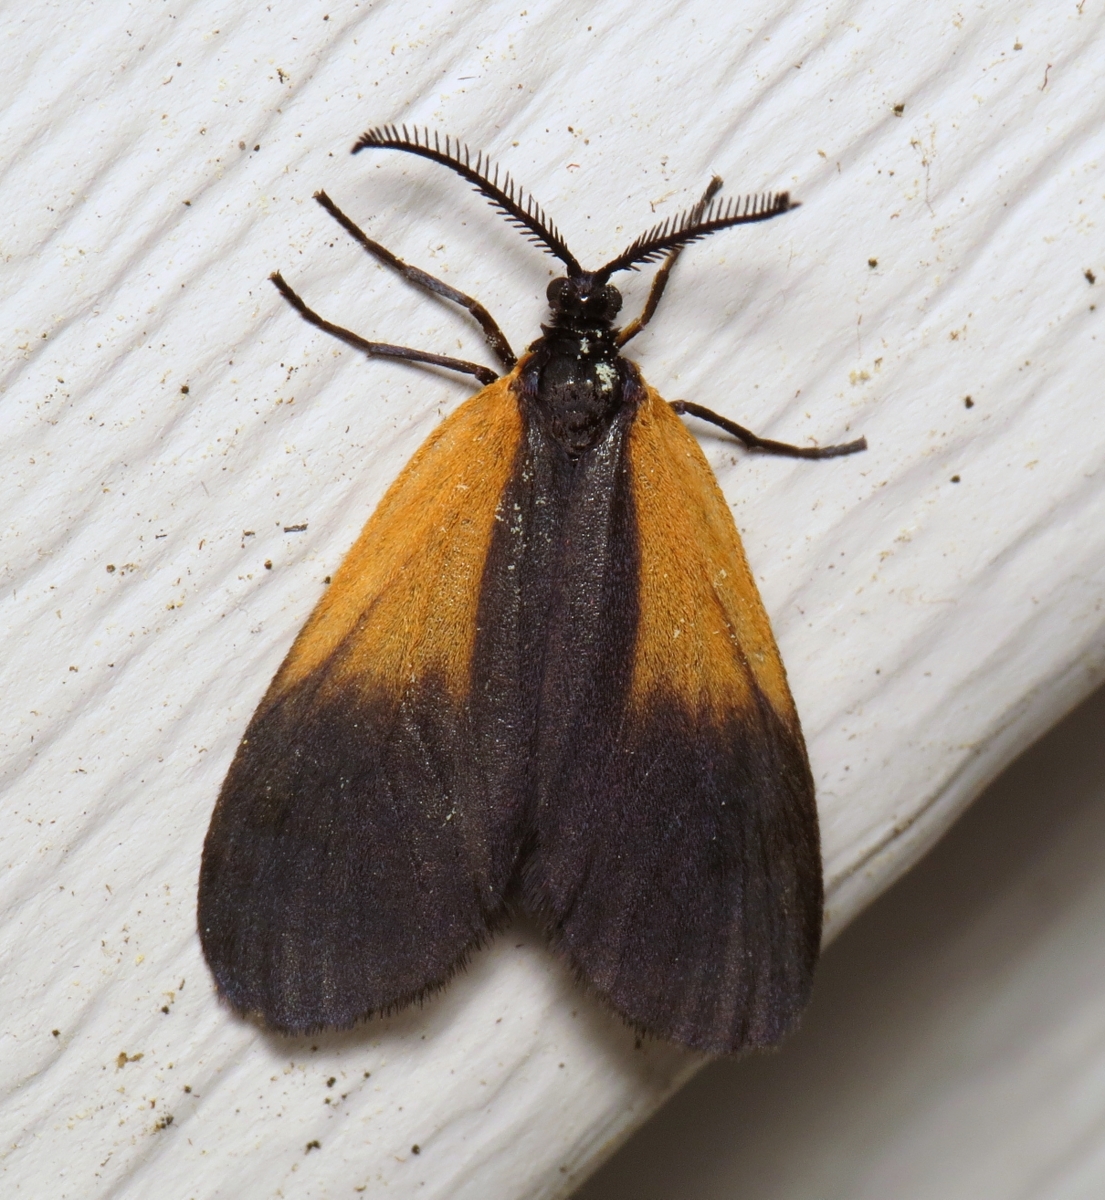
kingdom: Animalia
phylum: Arthropoda
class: Insecta
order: Lepidoptera
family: Zygaenidae
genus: Malthaca
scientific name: Malthaca dimidiata
